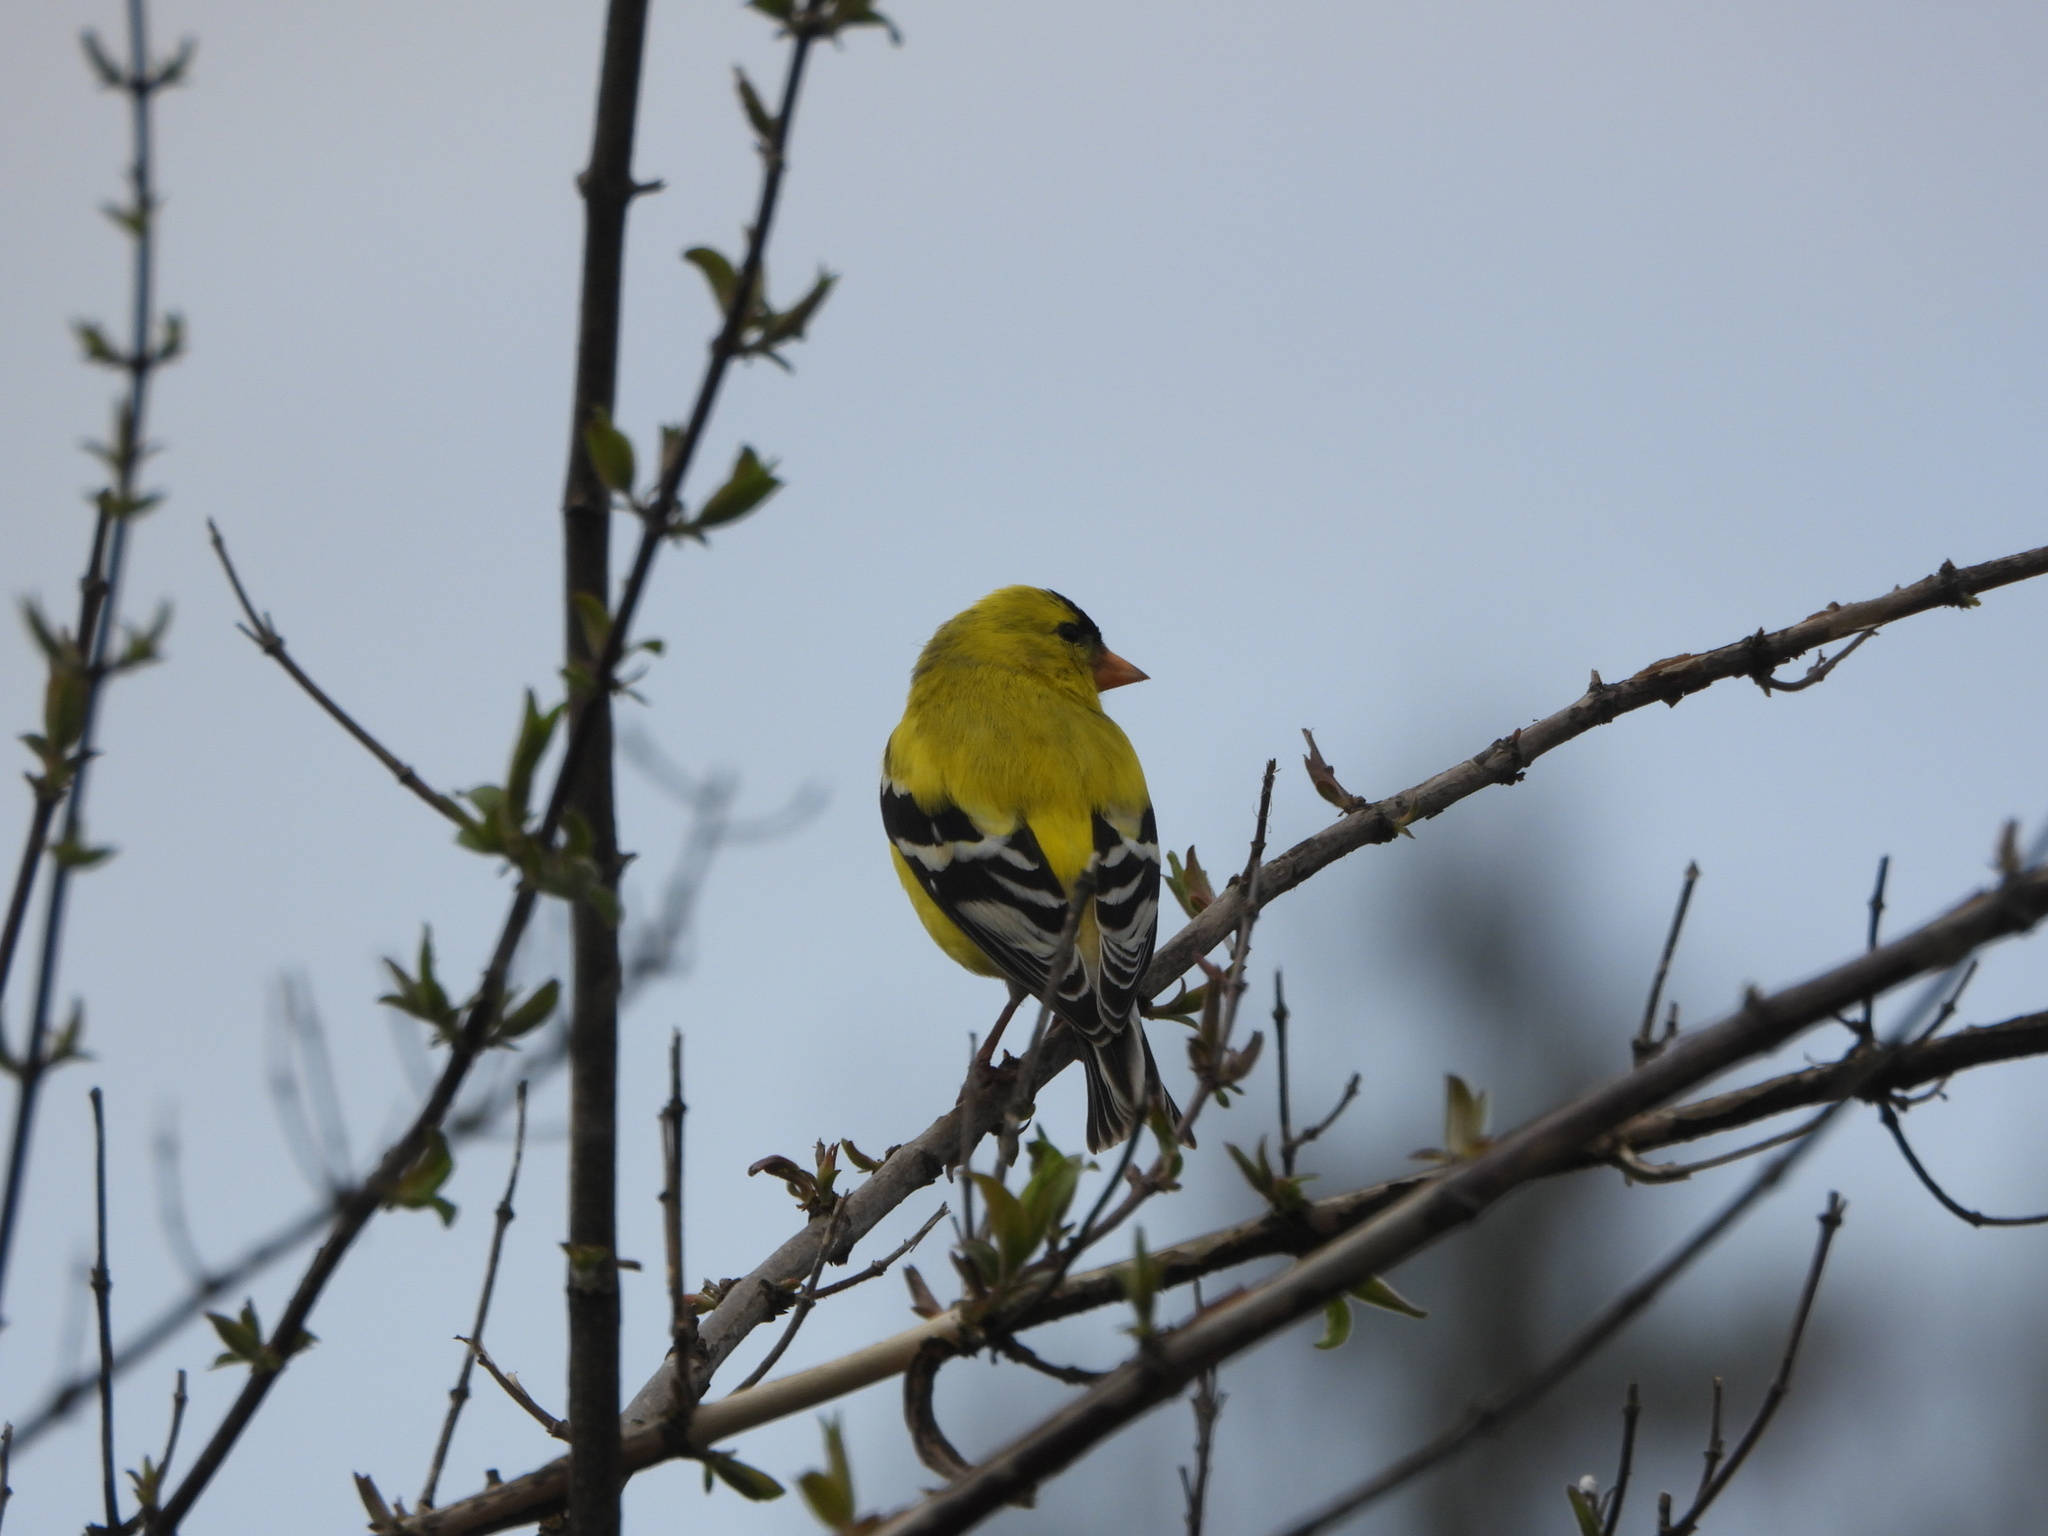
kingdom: Animalia
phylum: Chordata
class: Aves
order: Passeriformes
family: Fringillidae
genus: Spinus
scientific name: Spinus tristis
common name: American goldfinch
